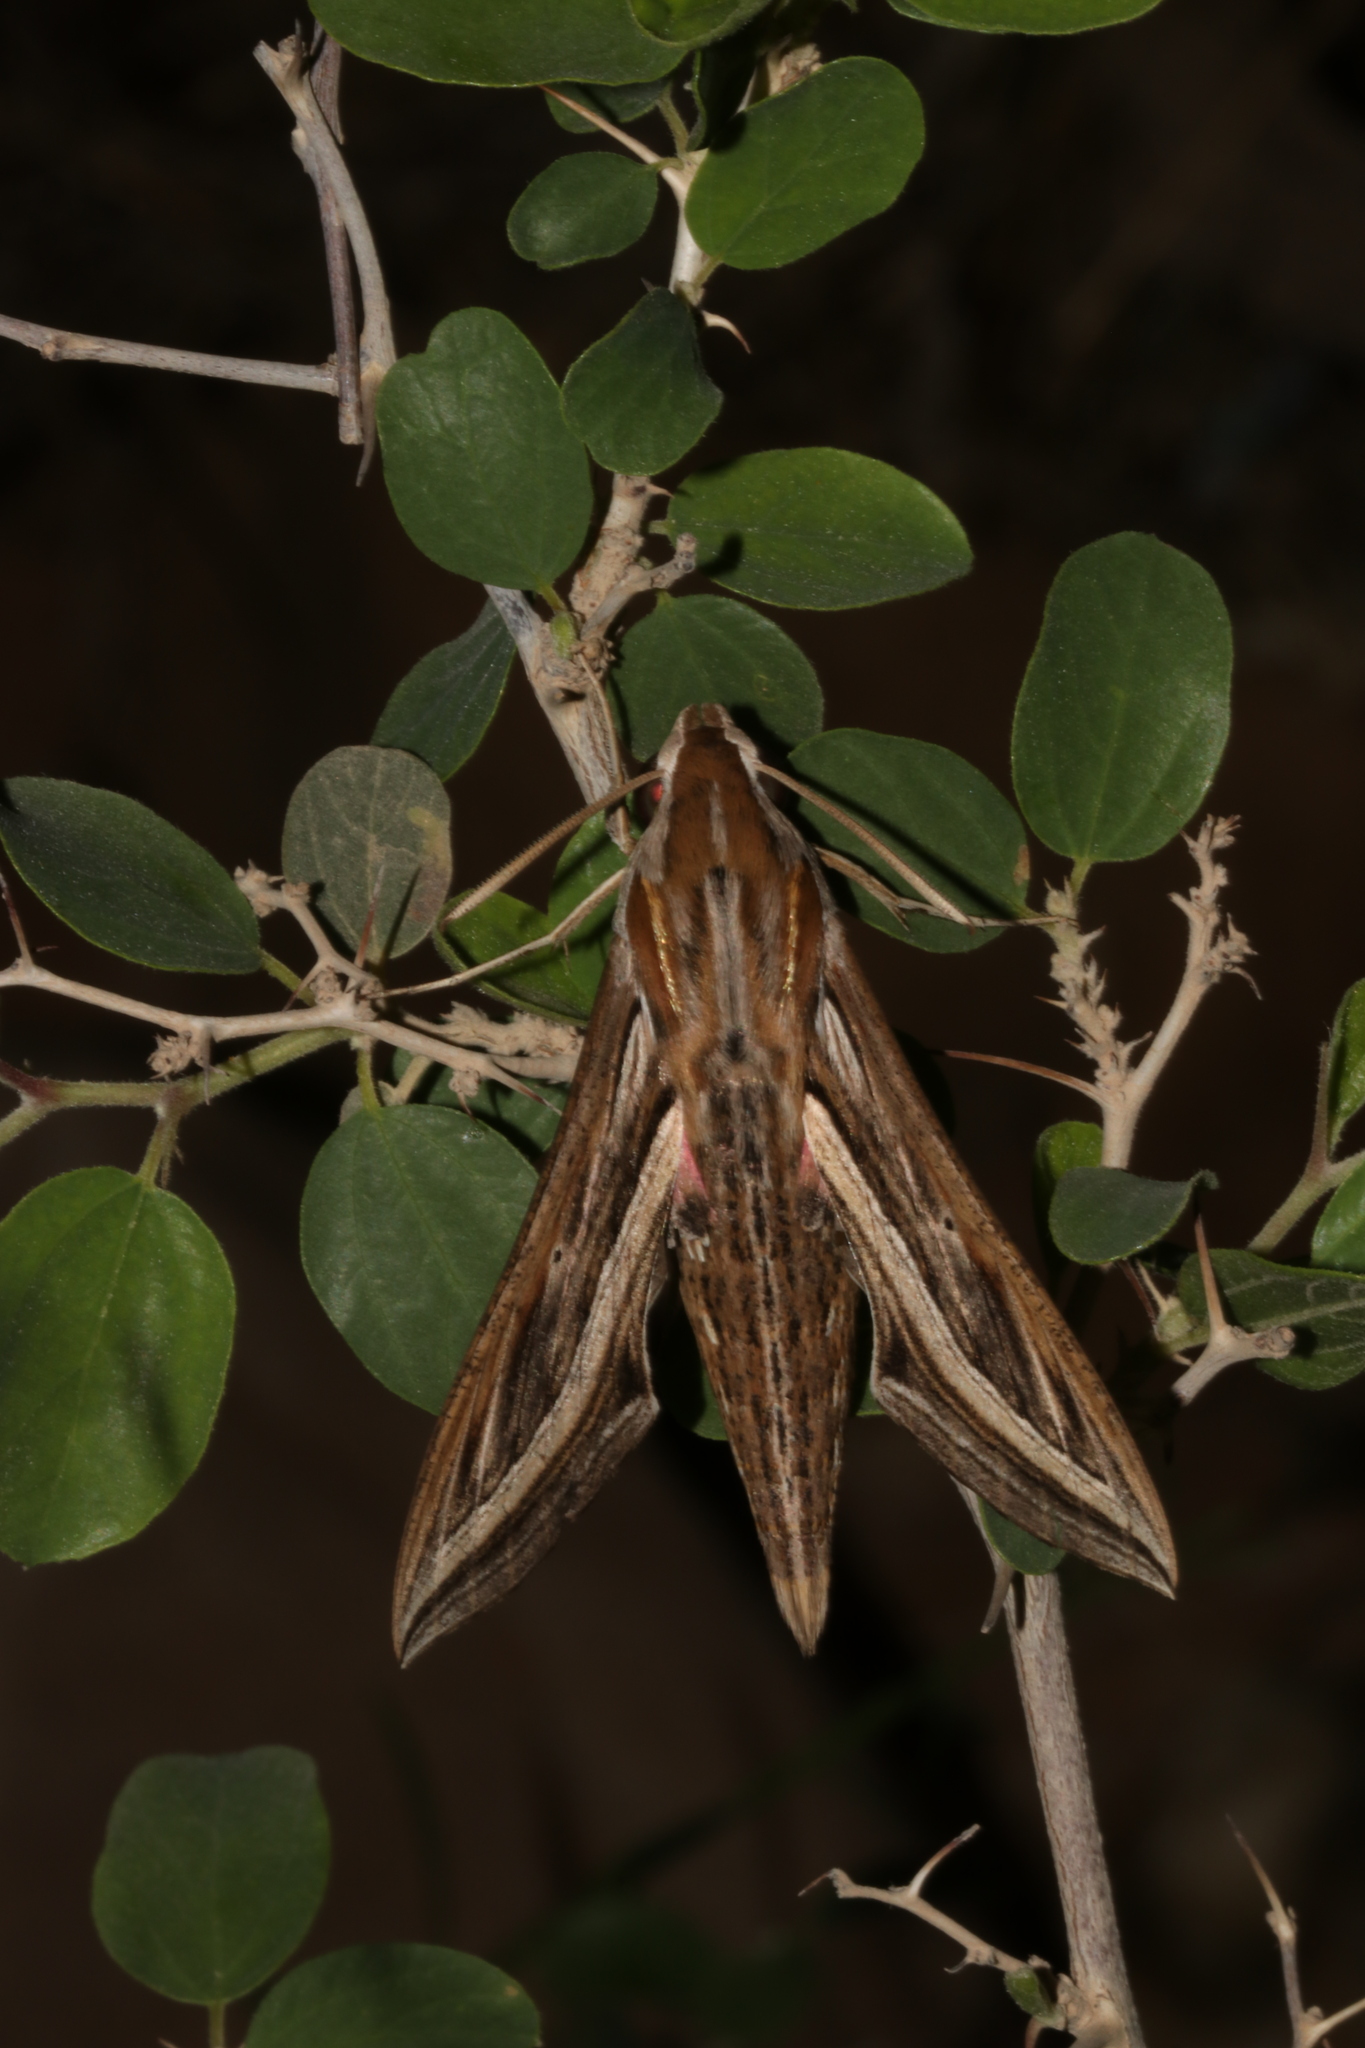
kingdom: Animalia
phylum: Arthropoda
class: Insecta
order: Lepidoptera
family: Sphingidae
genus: Hippotion
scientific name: Hippotion celerio
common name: Silver-striped hawk-moth
